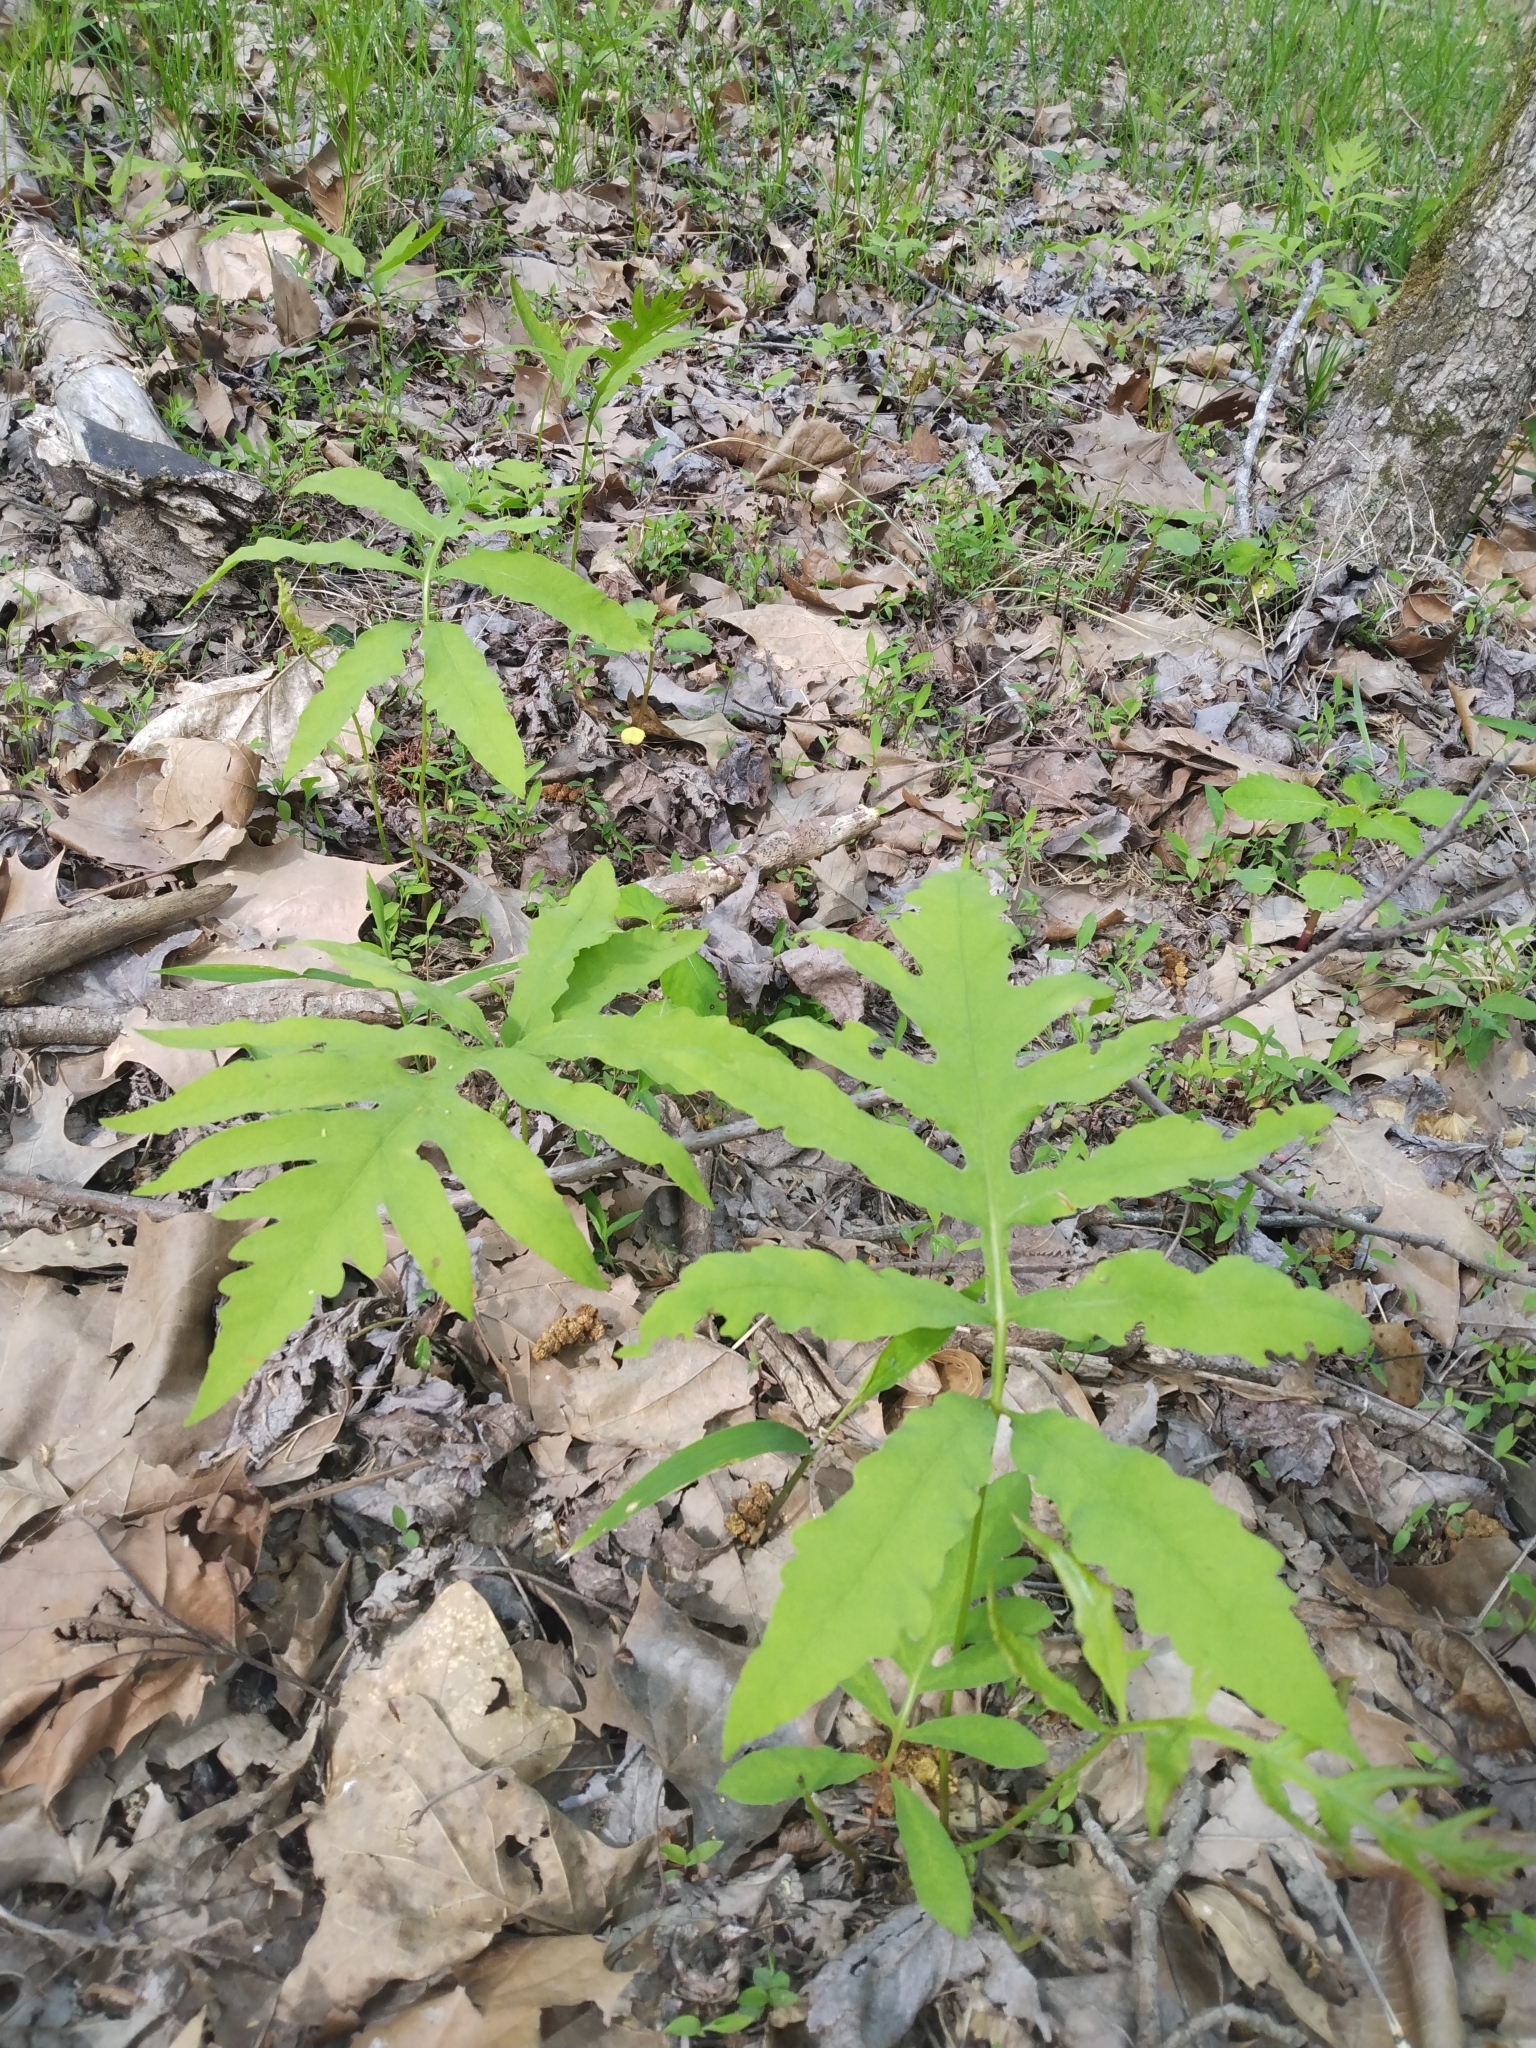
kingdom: Plantae
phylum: Tracheophyta
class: Polypodiopsida
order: Polypodiales
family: Onocleaceae
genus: Onoclea
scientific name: Onoclea sensibilis
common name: Sensitive fern
